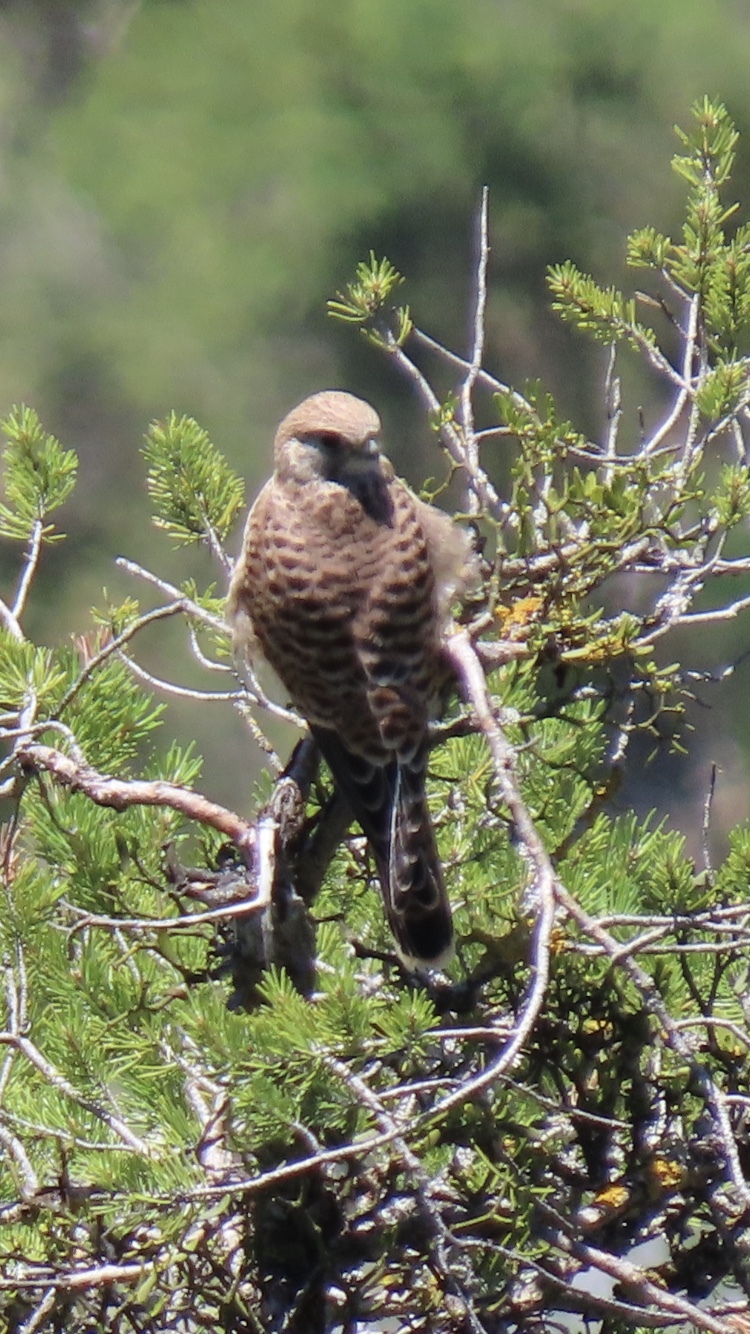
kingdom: Animalia
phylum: Chordata
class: Aves
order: Falconiformes
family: Falconidae
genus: Falco
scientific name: Falco tinnunculus
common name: Common kestrel
